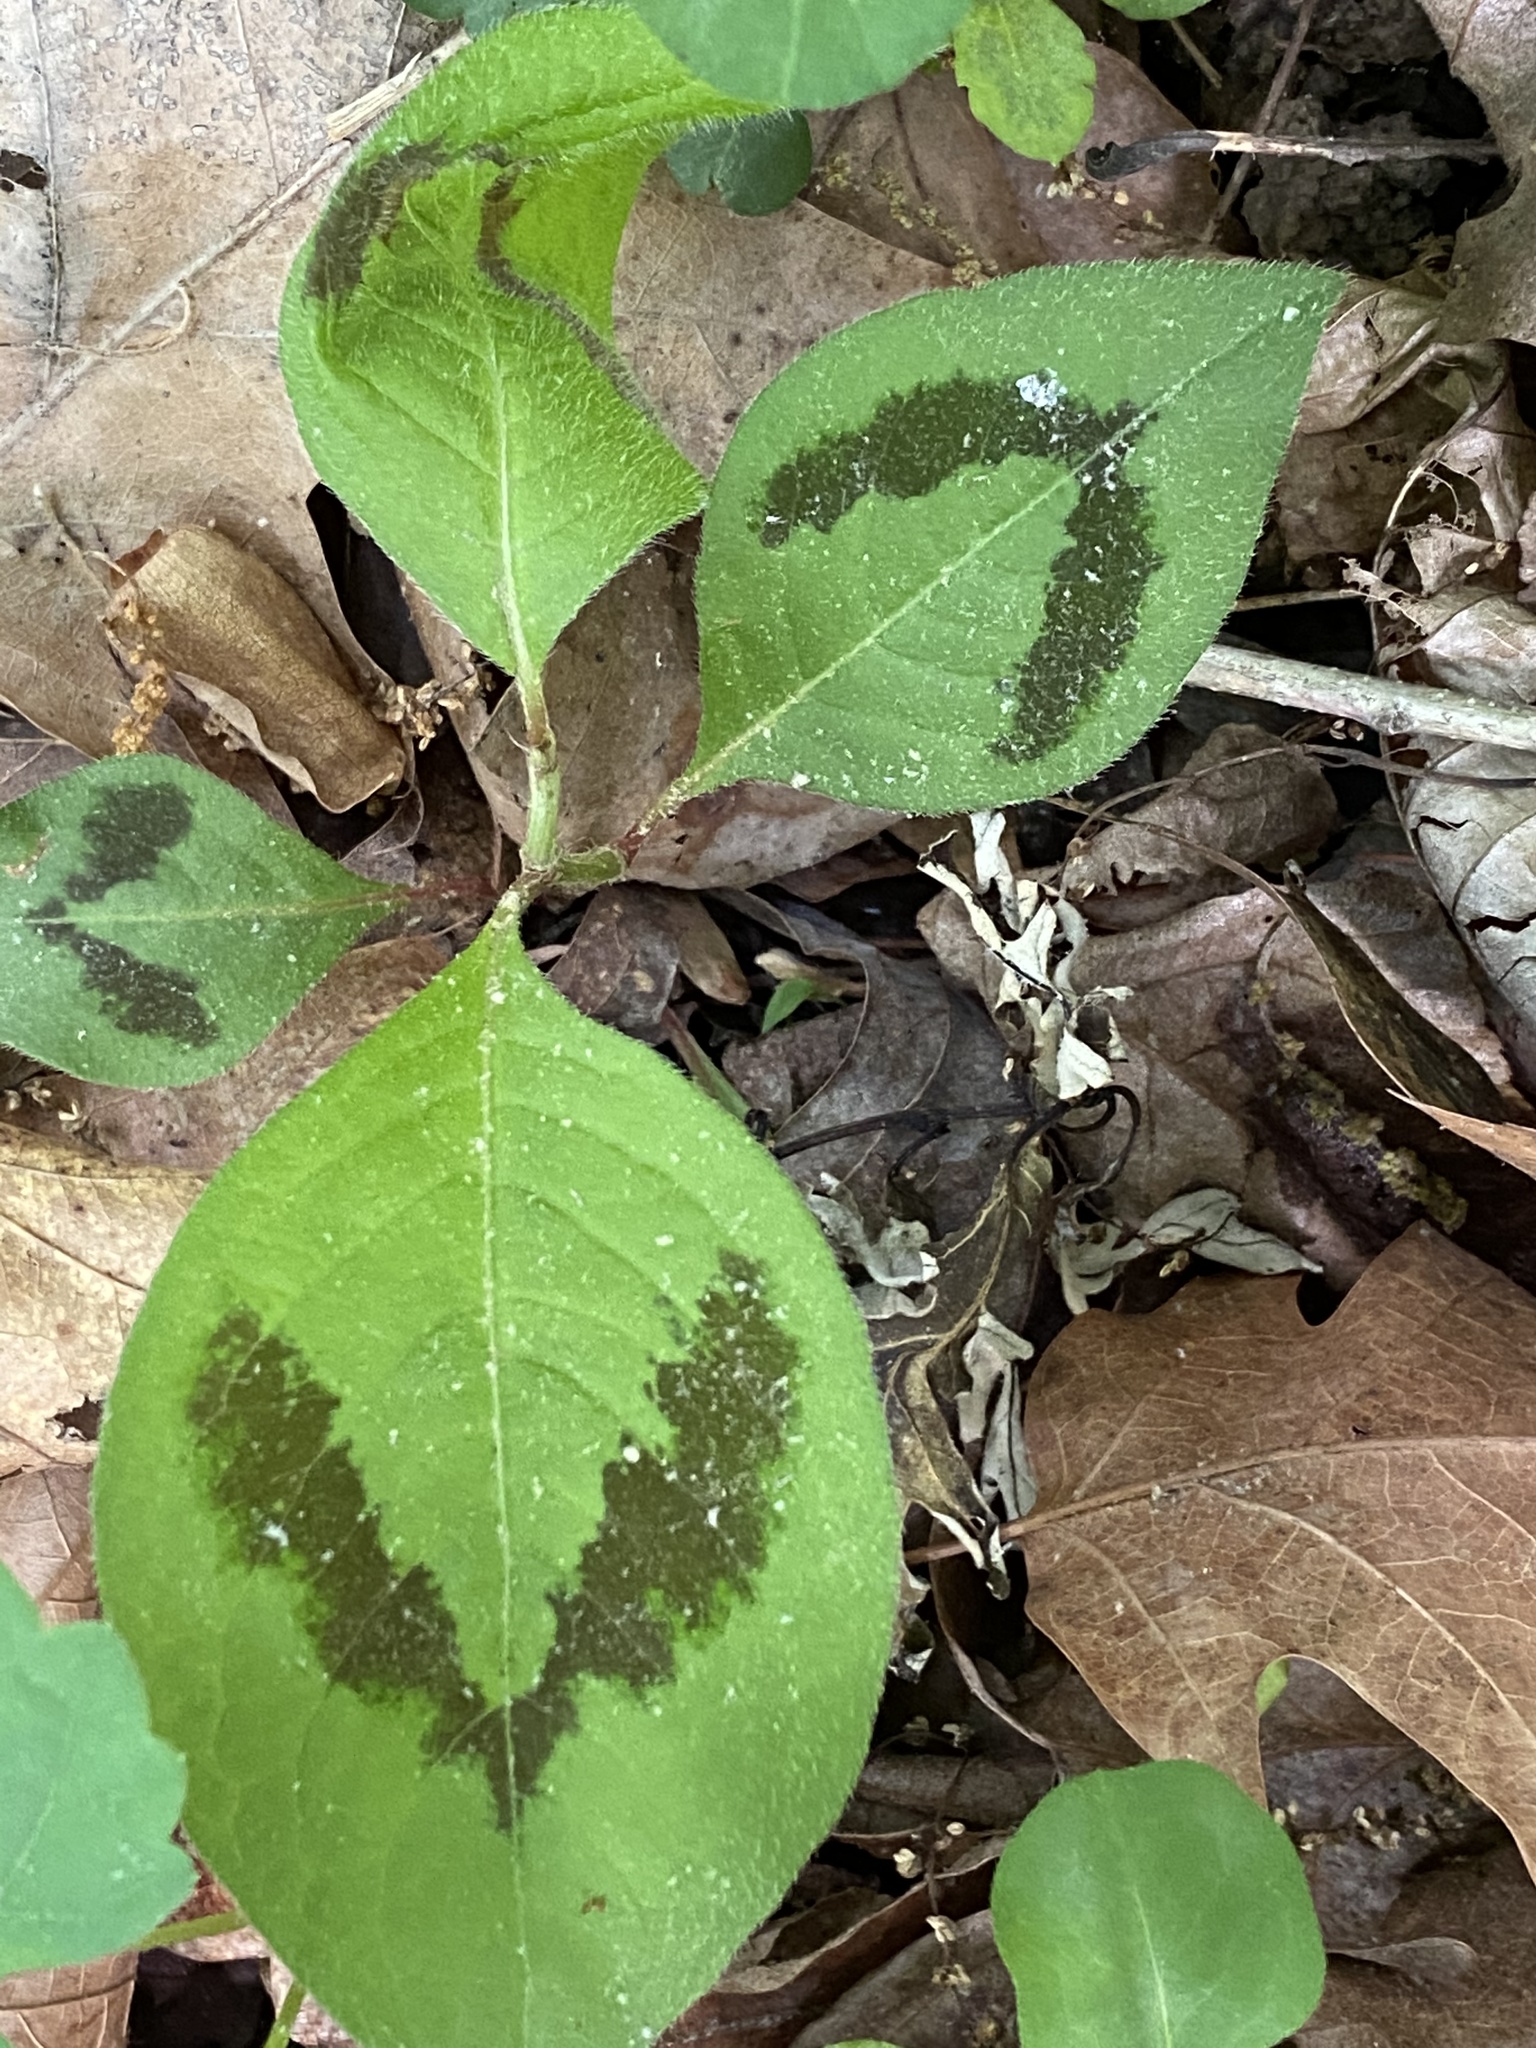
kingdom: Plantae
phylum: Tracheophyta
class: Magnoliopsida
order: Caryophyllales
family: Polygonaceae
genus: Persicaria
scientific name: Persicaria filiformis
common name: Asian jumpseed
